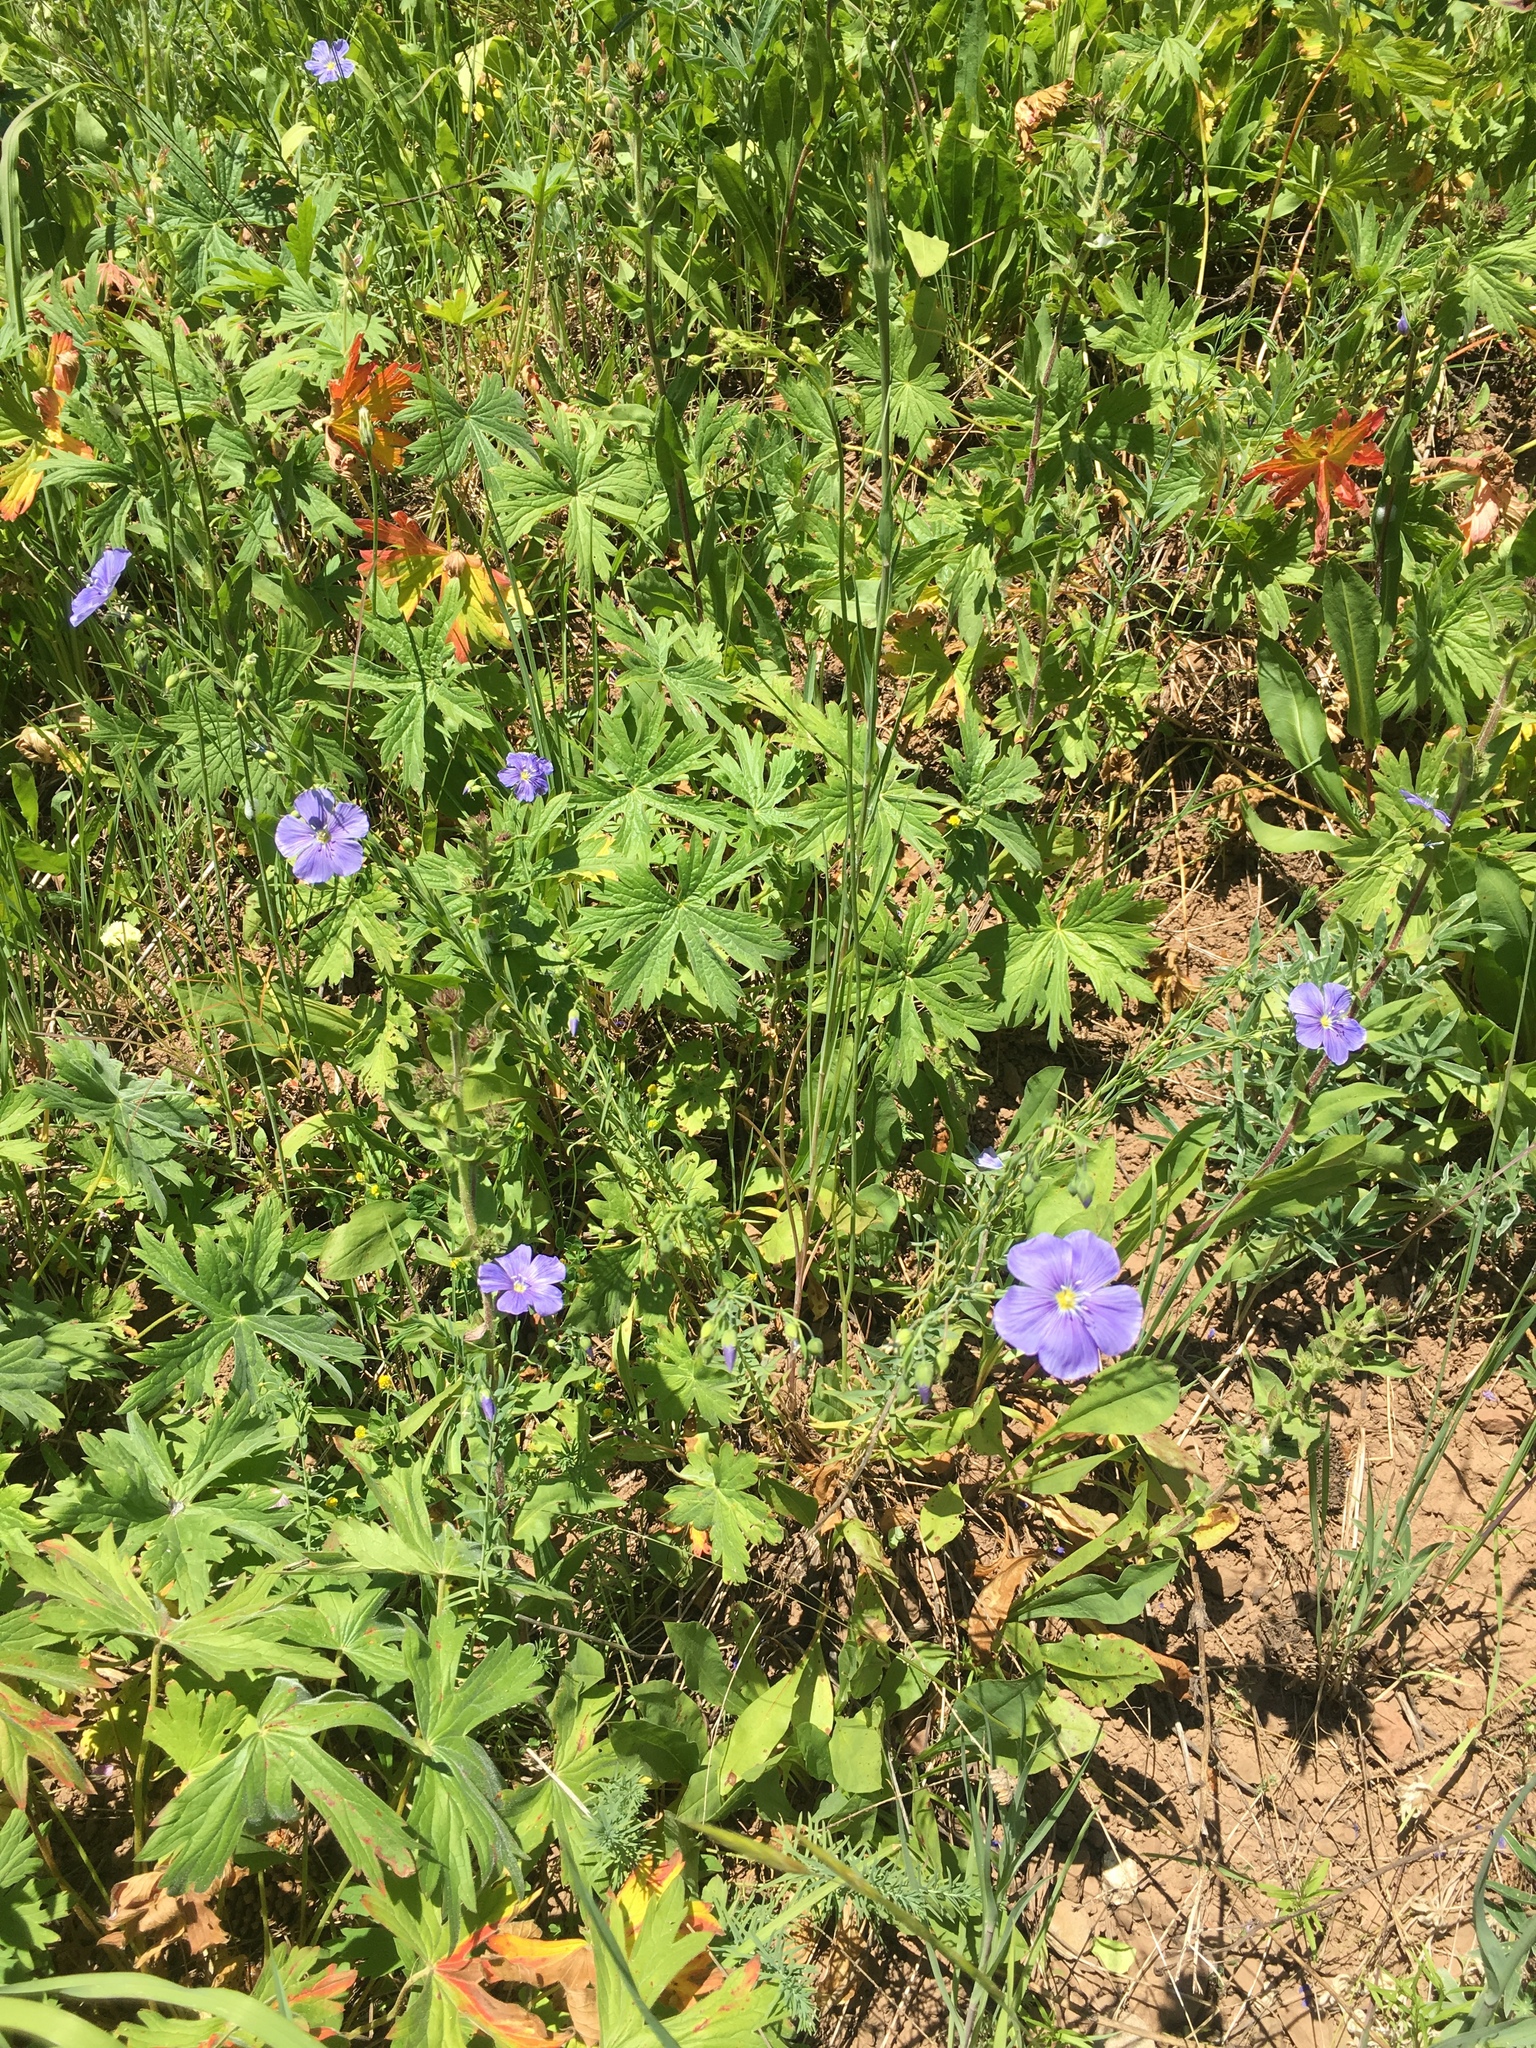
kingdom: Plantae
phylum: Tracheophyta
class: Magnoliopsida
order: Malpighiales
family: Linaceae
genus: Linum
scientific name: Linum lewisii
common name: Prairie flax
